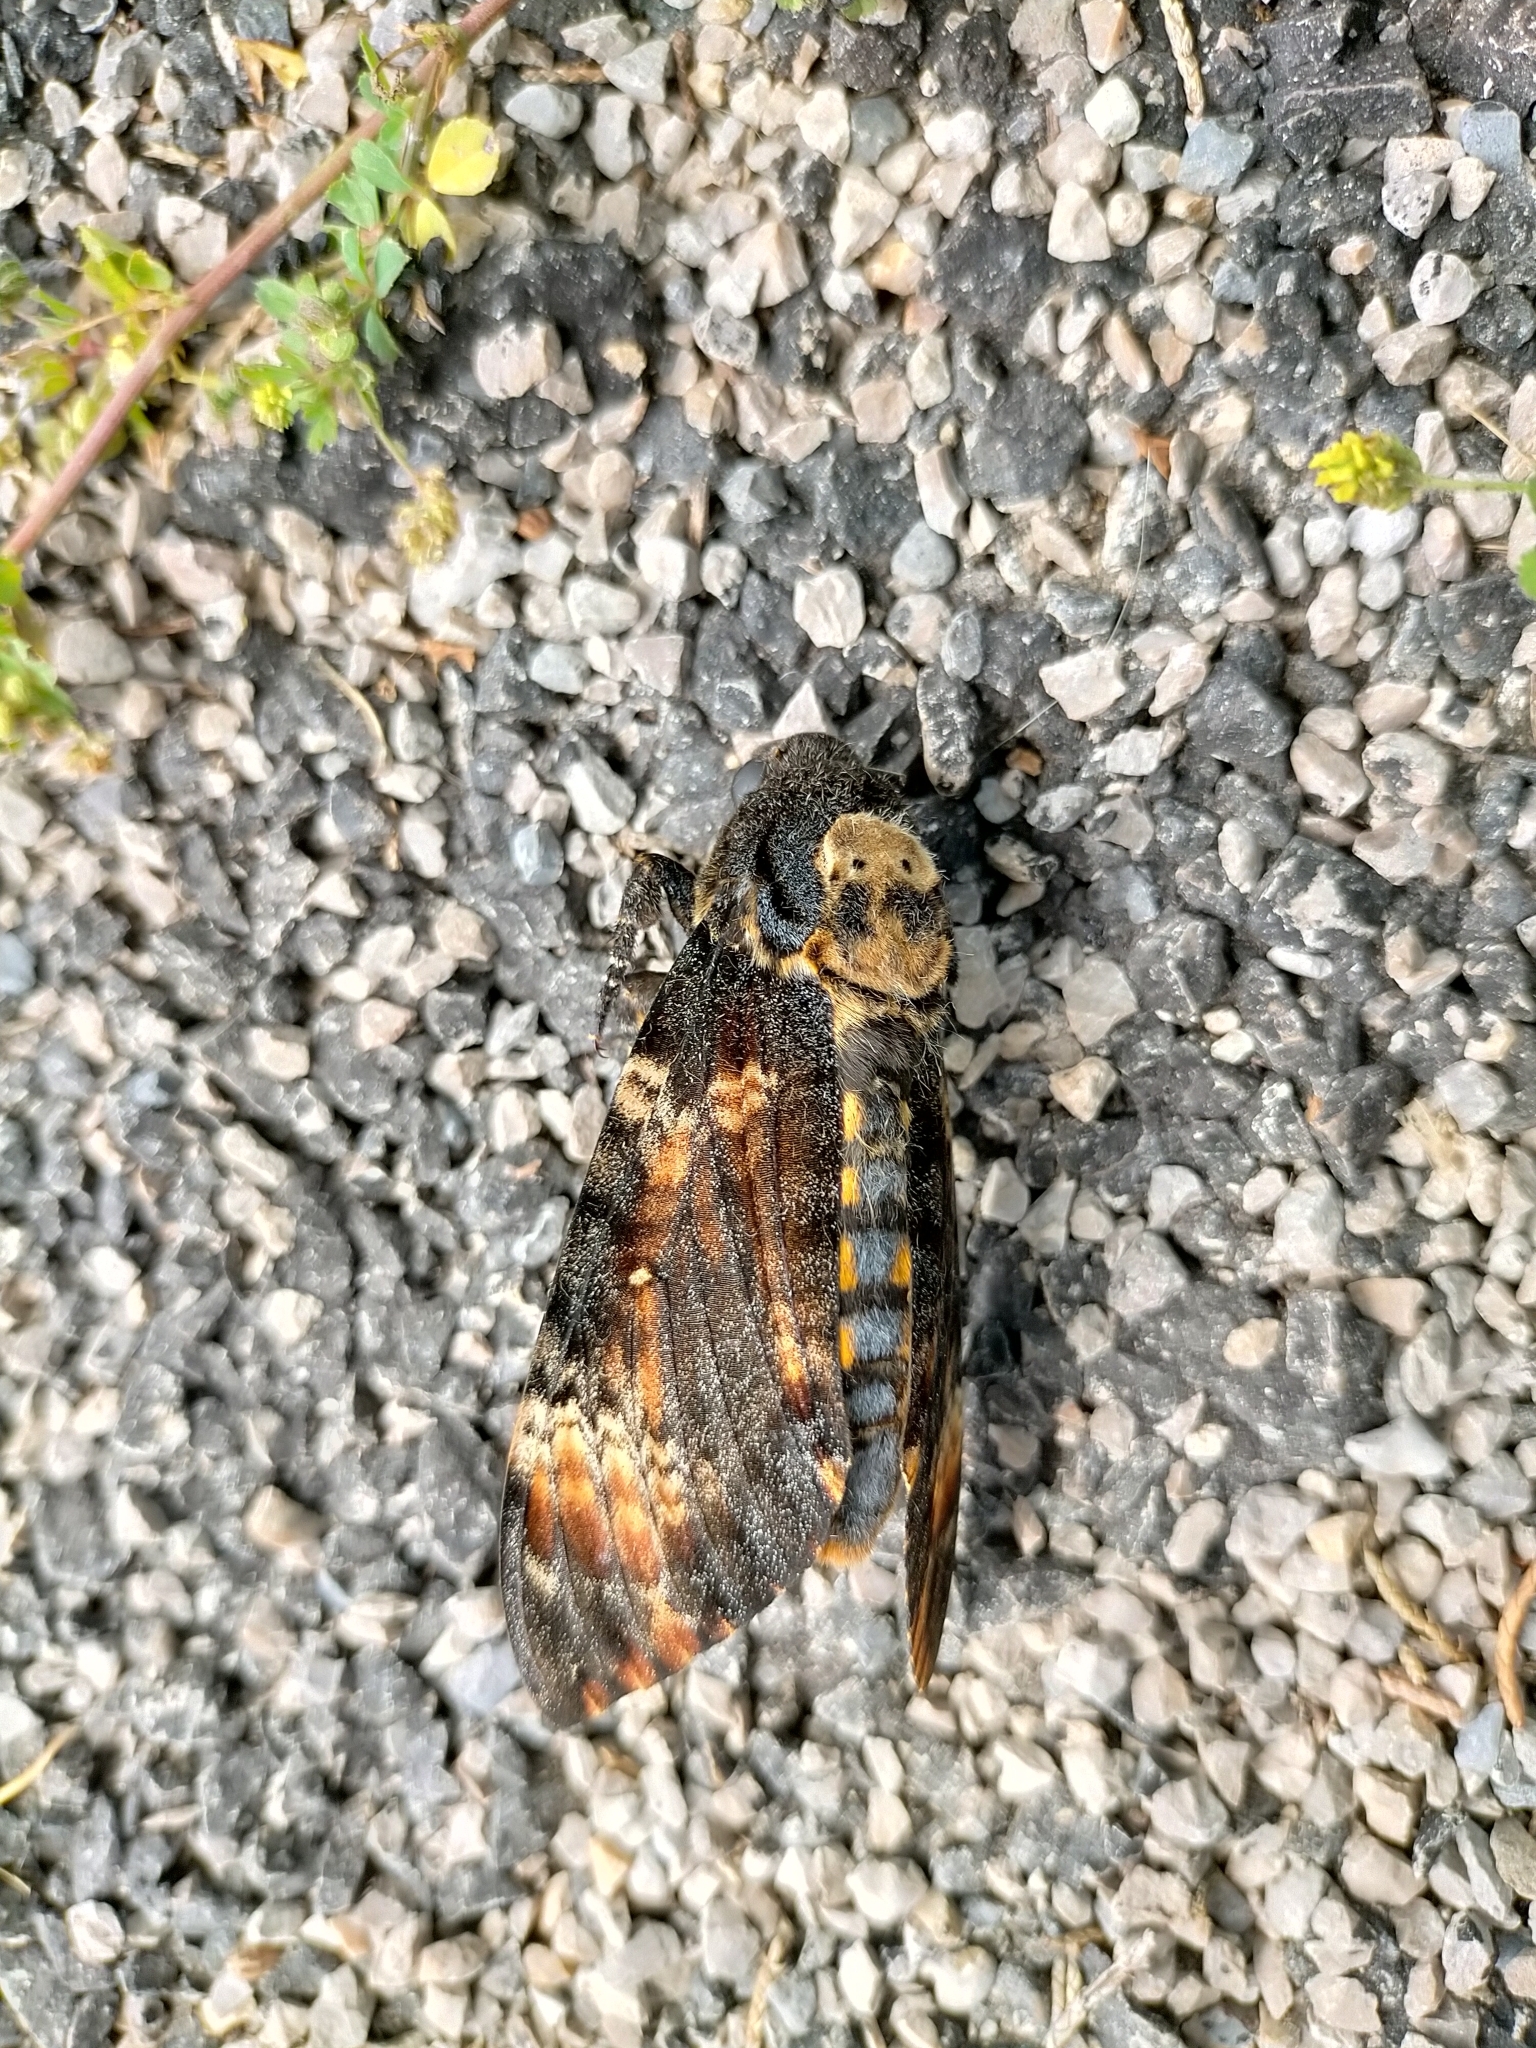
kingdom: Animalia
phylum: Arthropoda
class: Insecta
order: Lepidoptera
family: Sphingidae
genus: Acherontia
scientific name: Acherontia atropos
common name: Death's-head hawk moth
